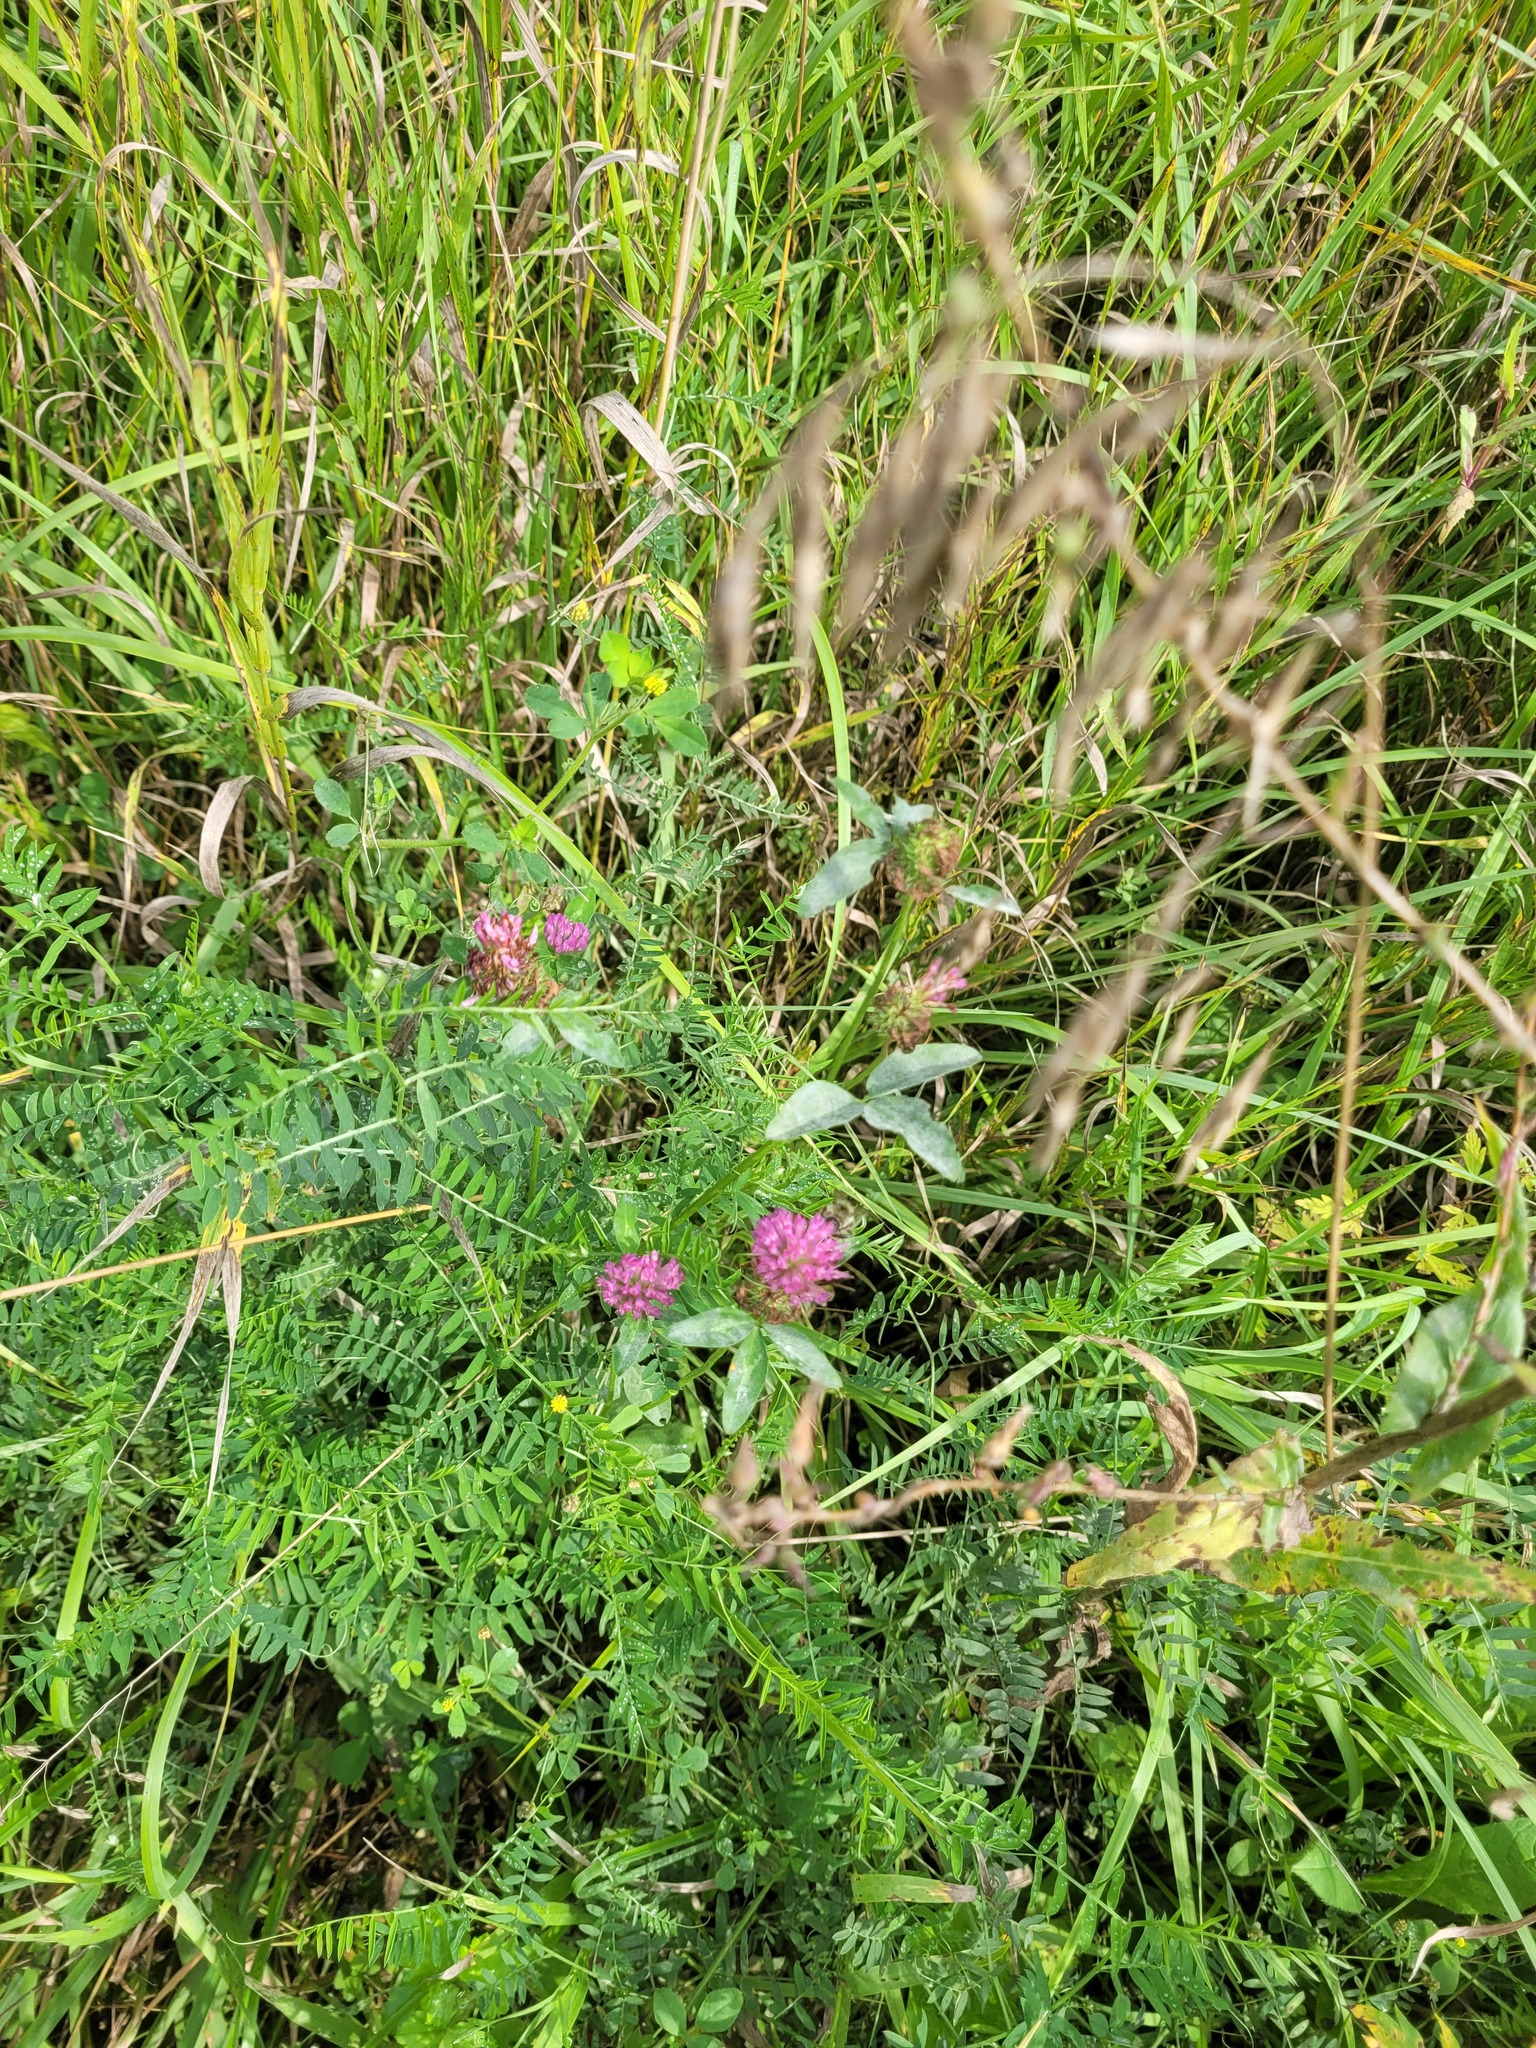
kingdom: Plantae
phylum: Tracheophyta
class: Magnoliopsida
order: Fabales
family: Fabaceae
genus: Trifolium
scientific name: Trifolium pratense
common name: Red clover
